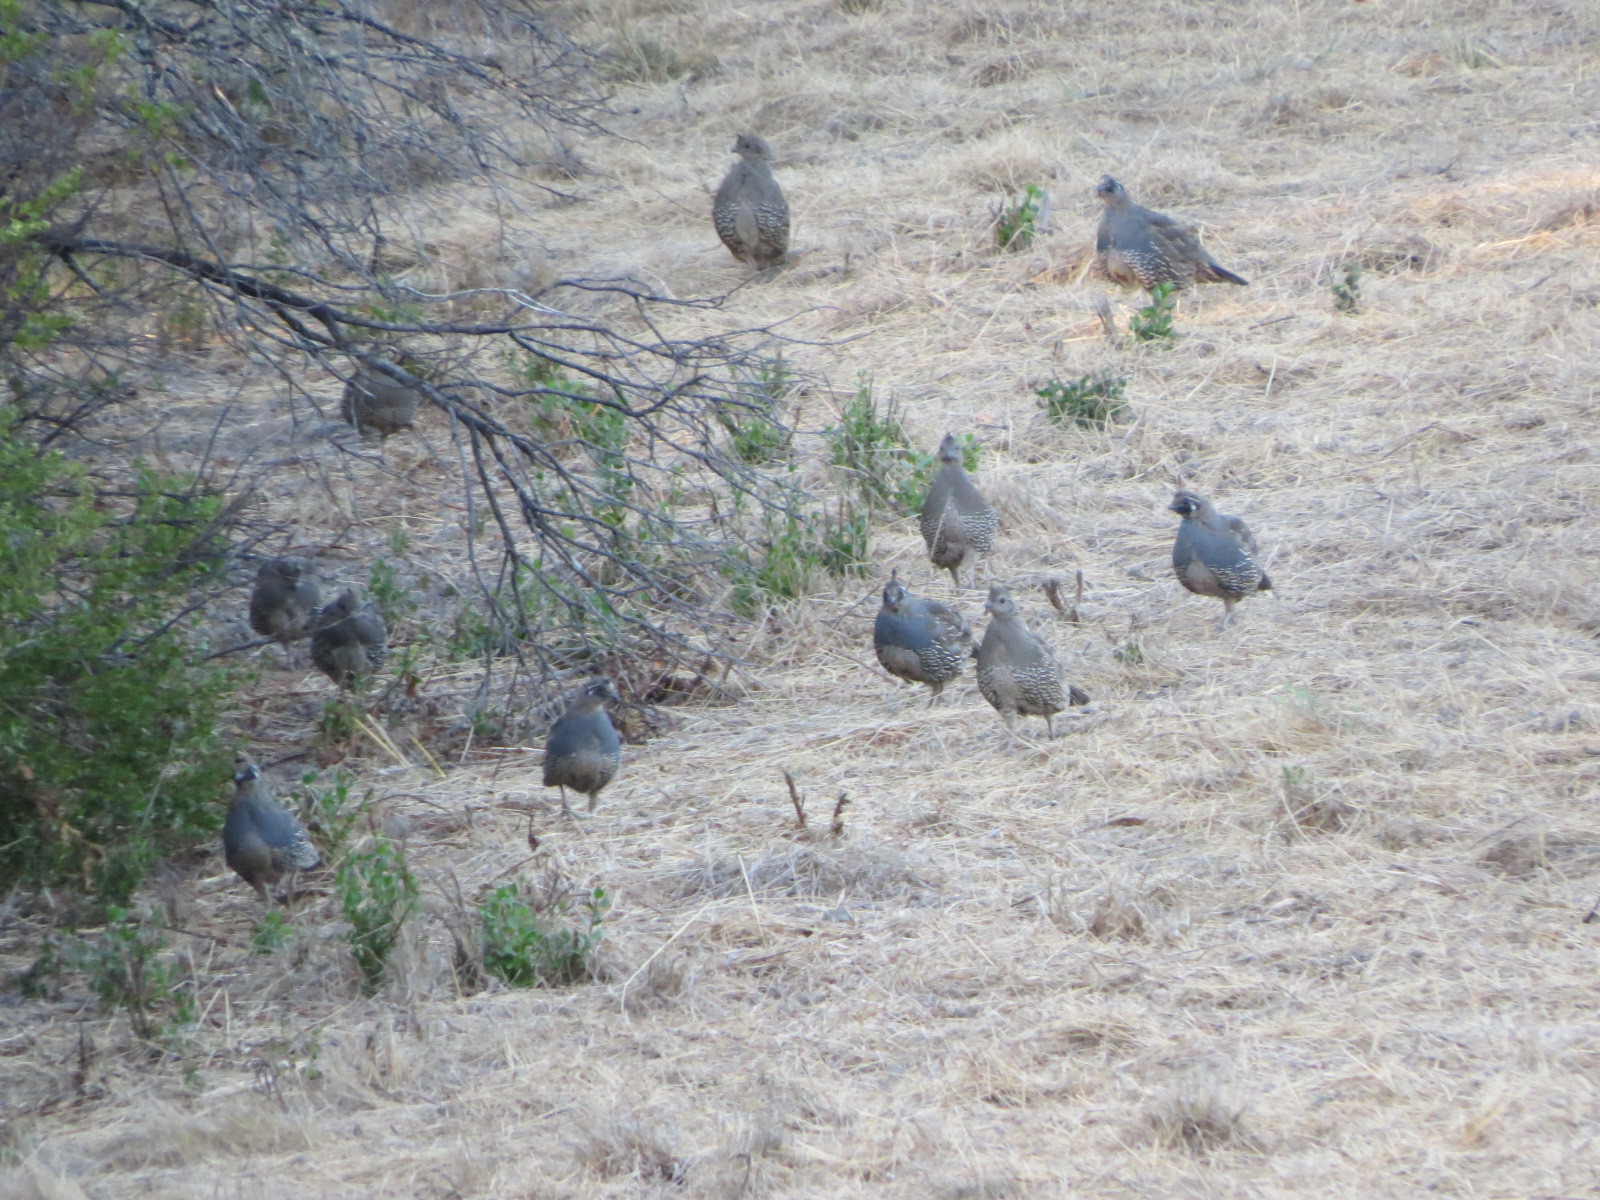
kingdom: Animalia
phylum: Chordata
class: Aves
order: Galliformes
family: Odontophoridae
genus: Callipepla
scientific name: Callipepla californica
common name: California quail
